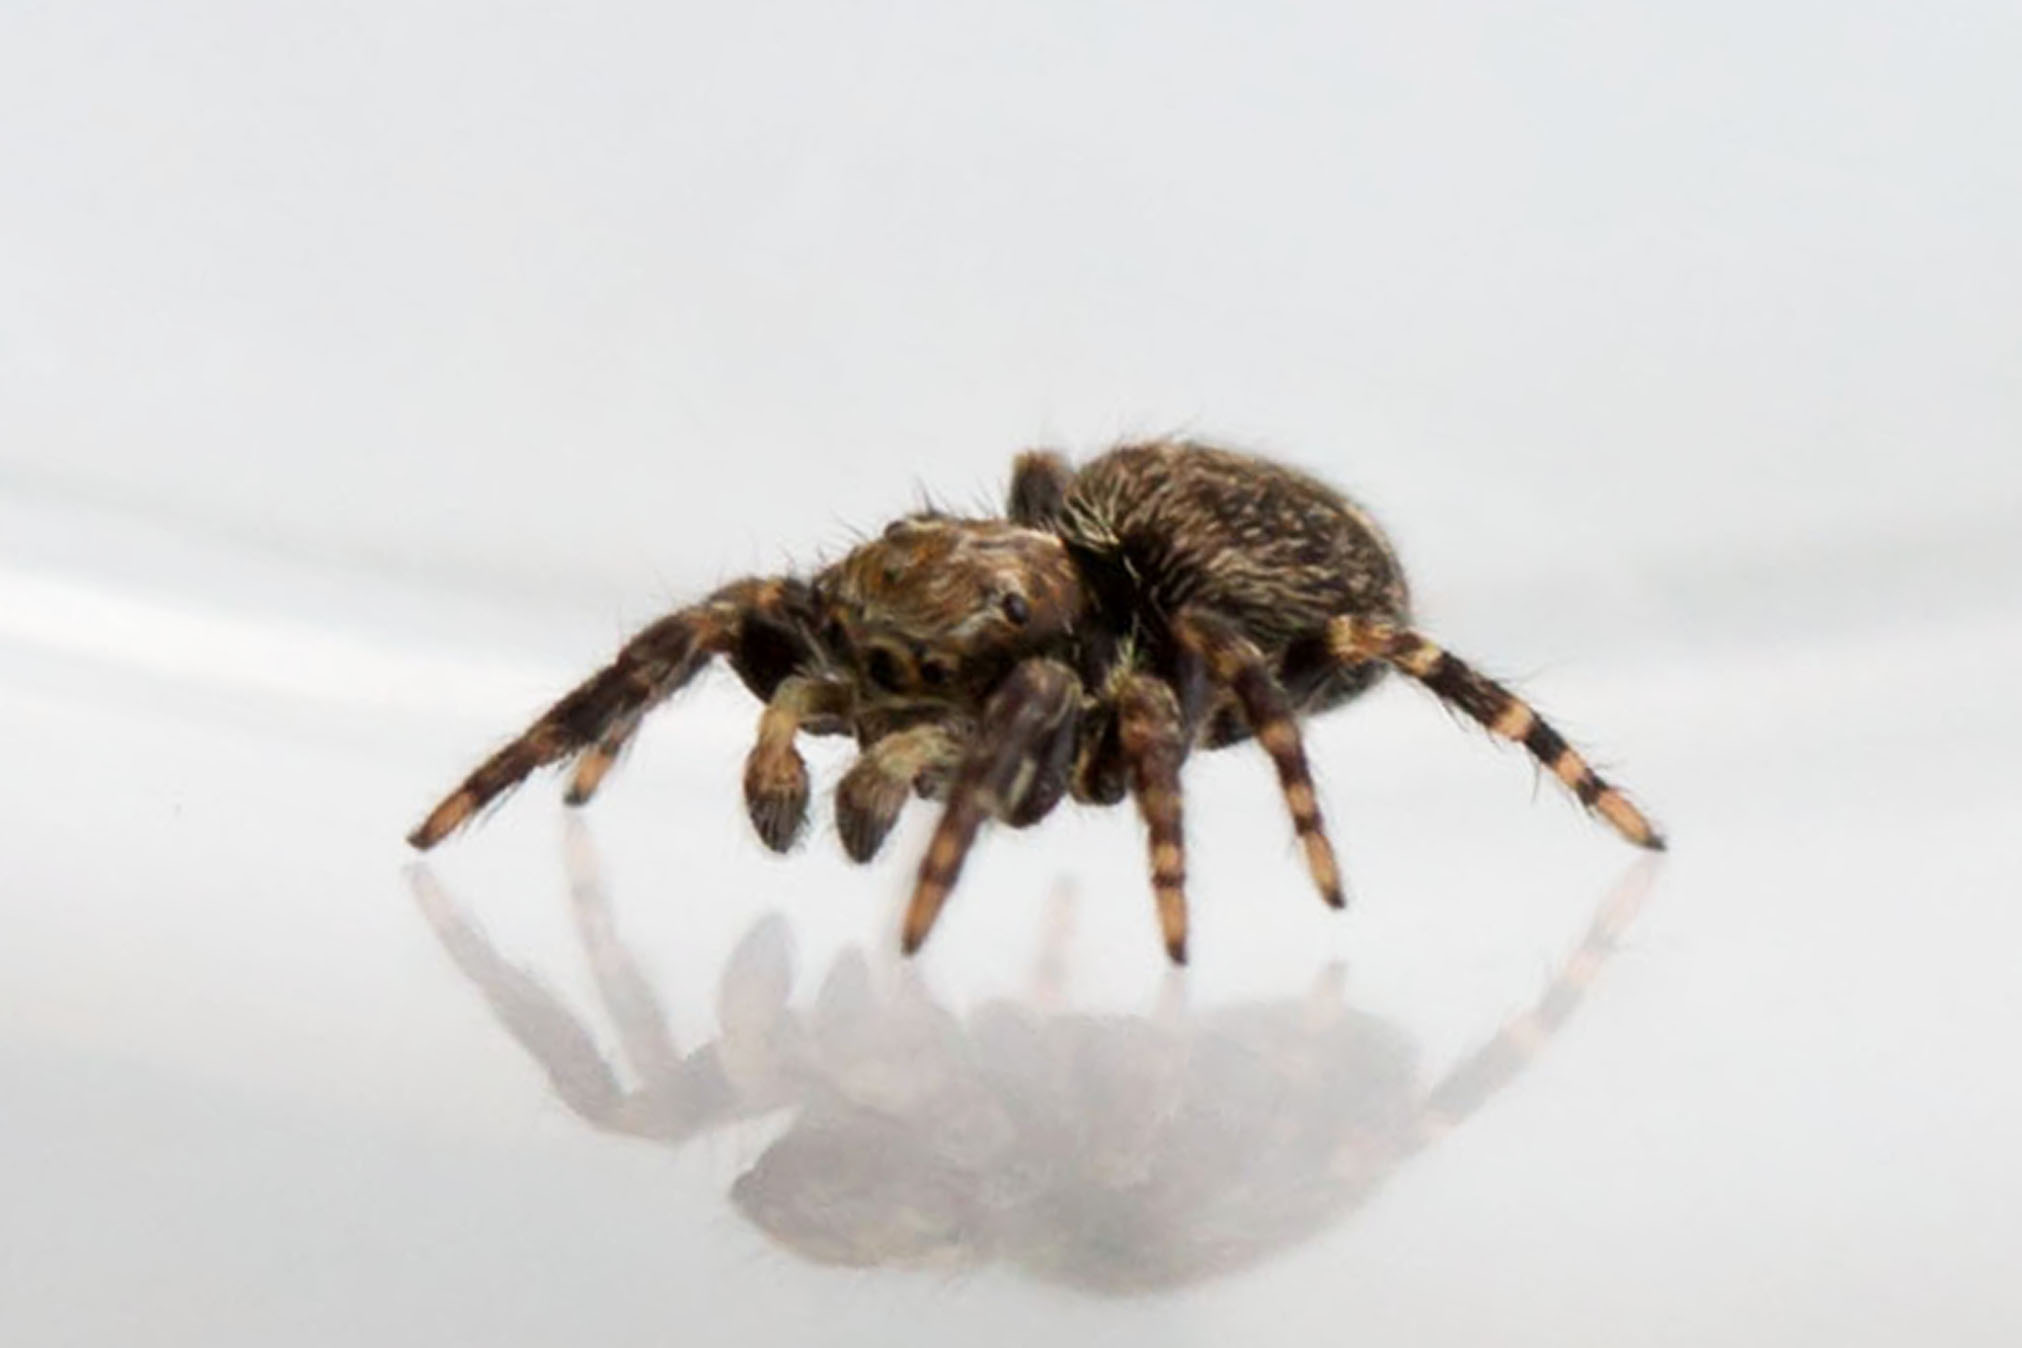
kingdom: Animalia
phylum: Arthropoda
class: Arachnida
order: Araneae
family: Salticidae
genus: Pseudeuophrys
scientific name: Pseudeuophrys erratica
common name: Jumping spider
